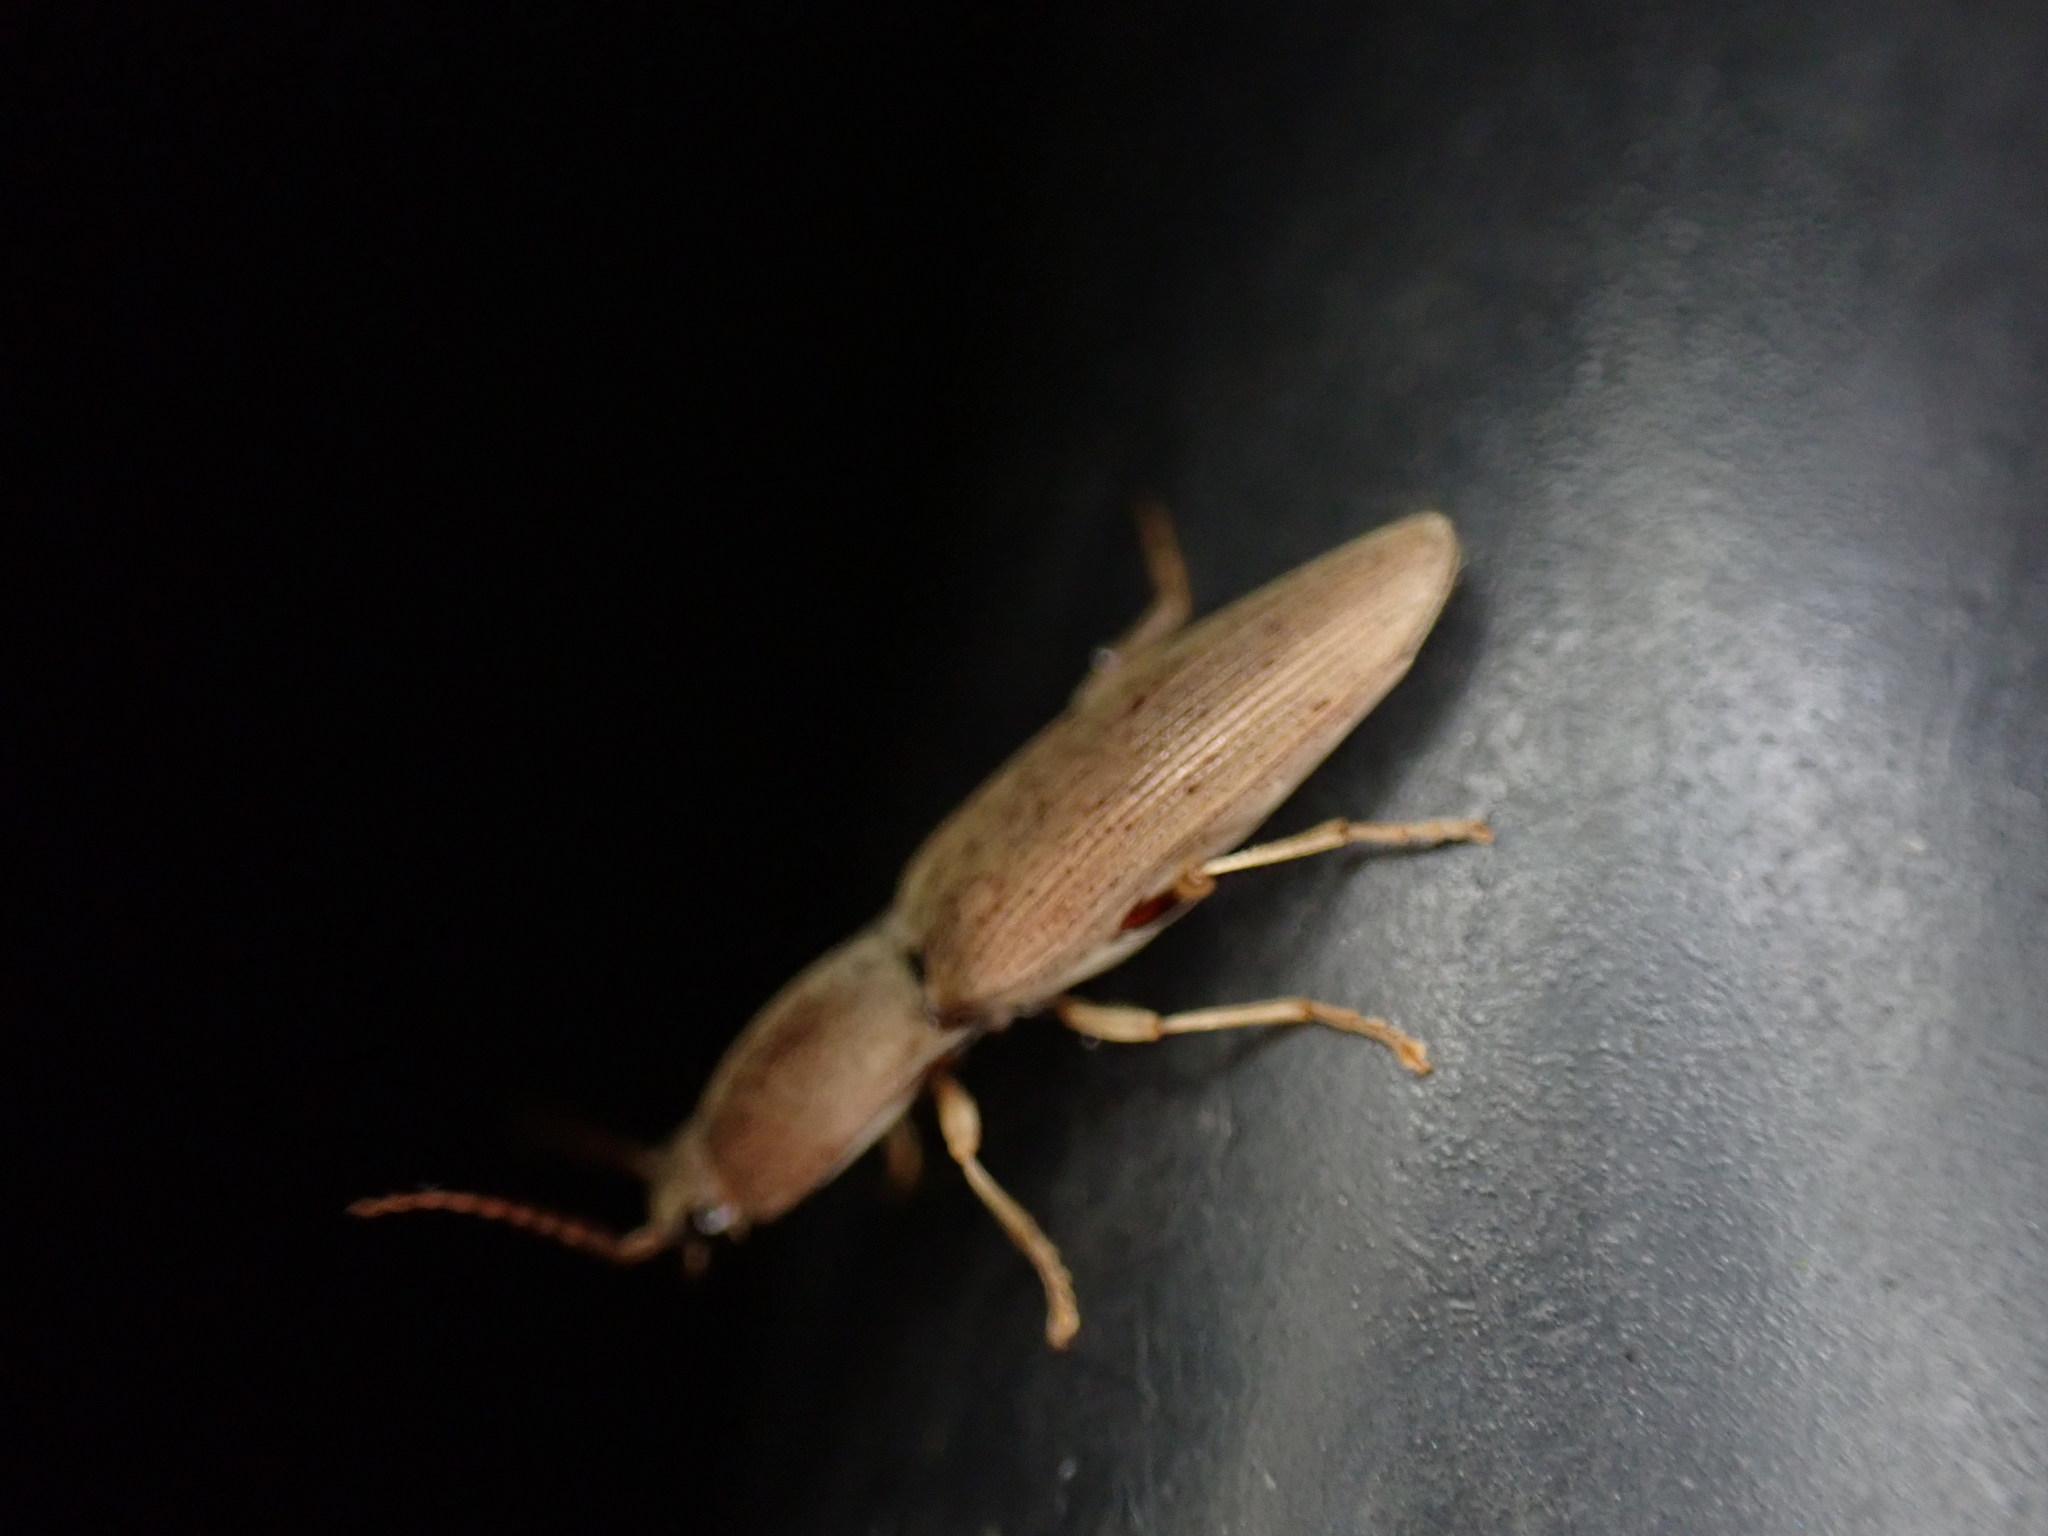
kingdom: Animalia
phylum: Arthropoda
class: Insecta
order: Coleoptera
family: Elateridae
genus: Monocrepidius
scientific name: Monocrepidius lividus
